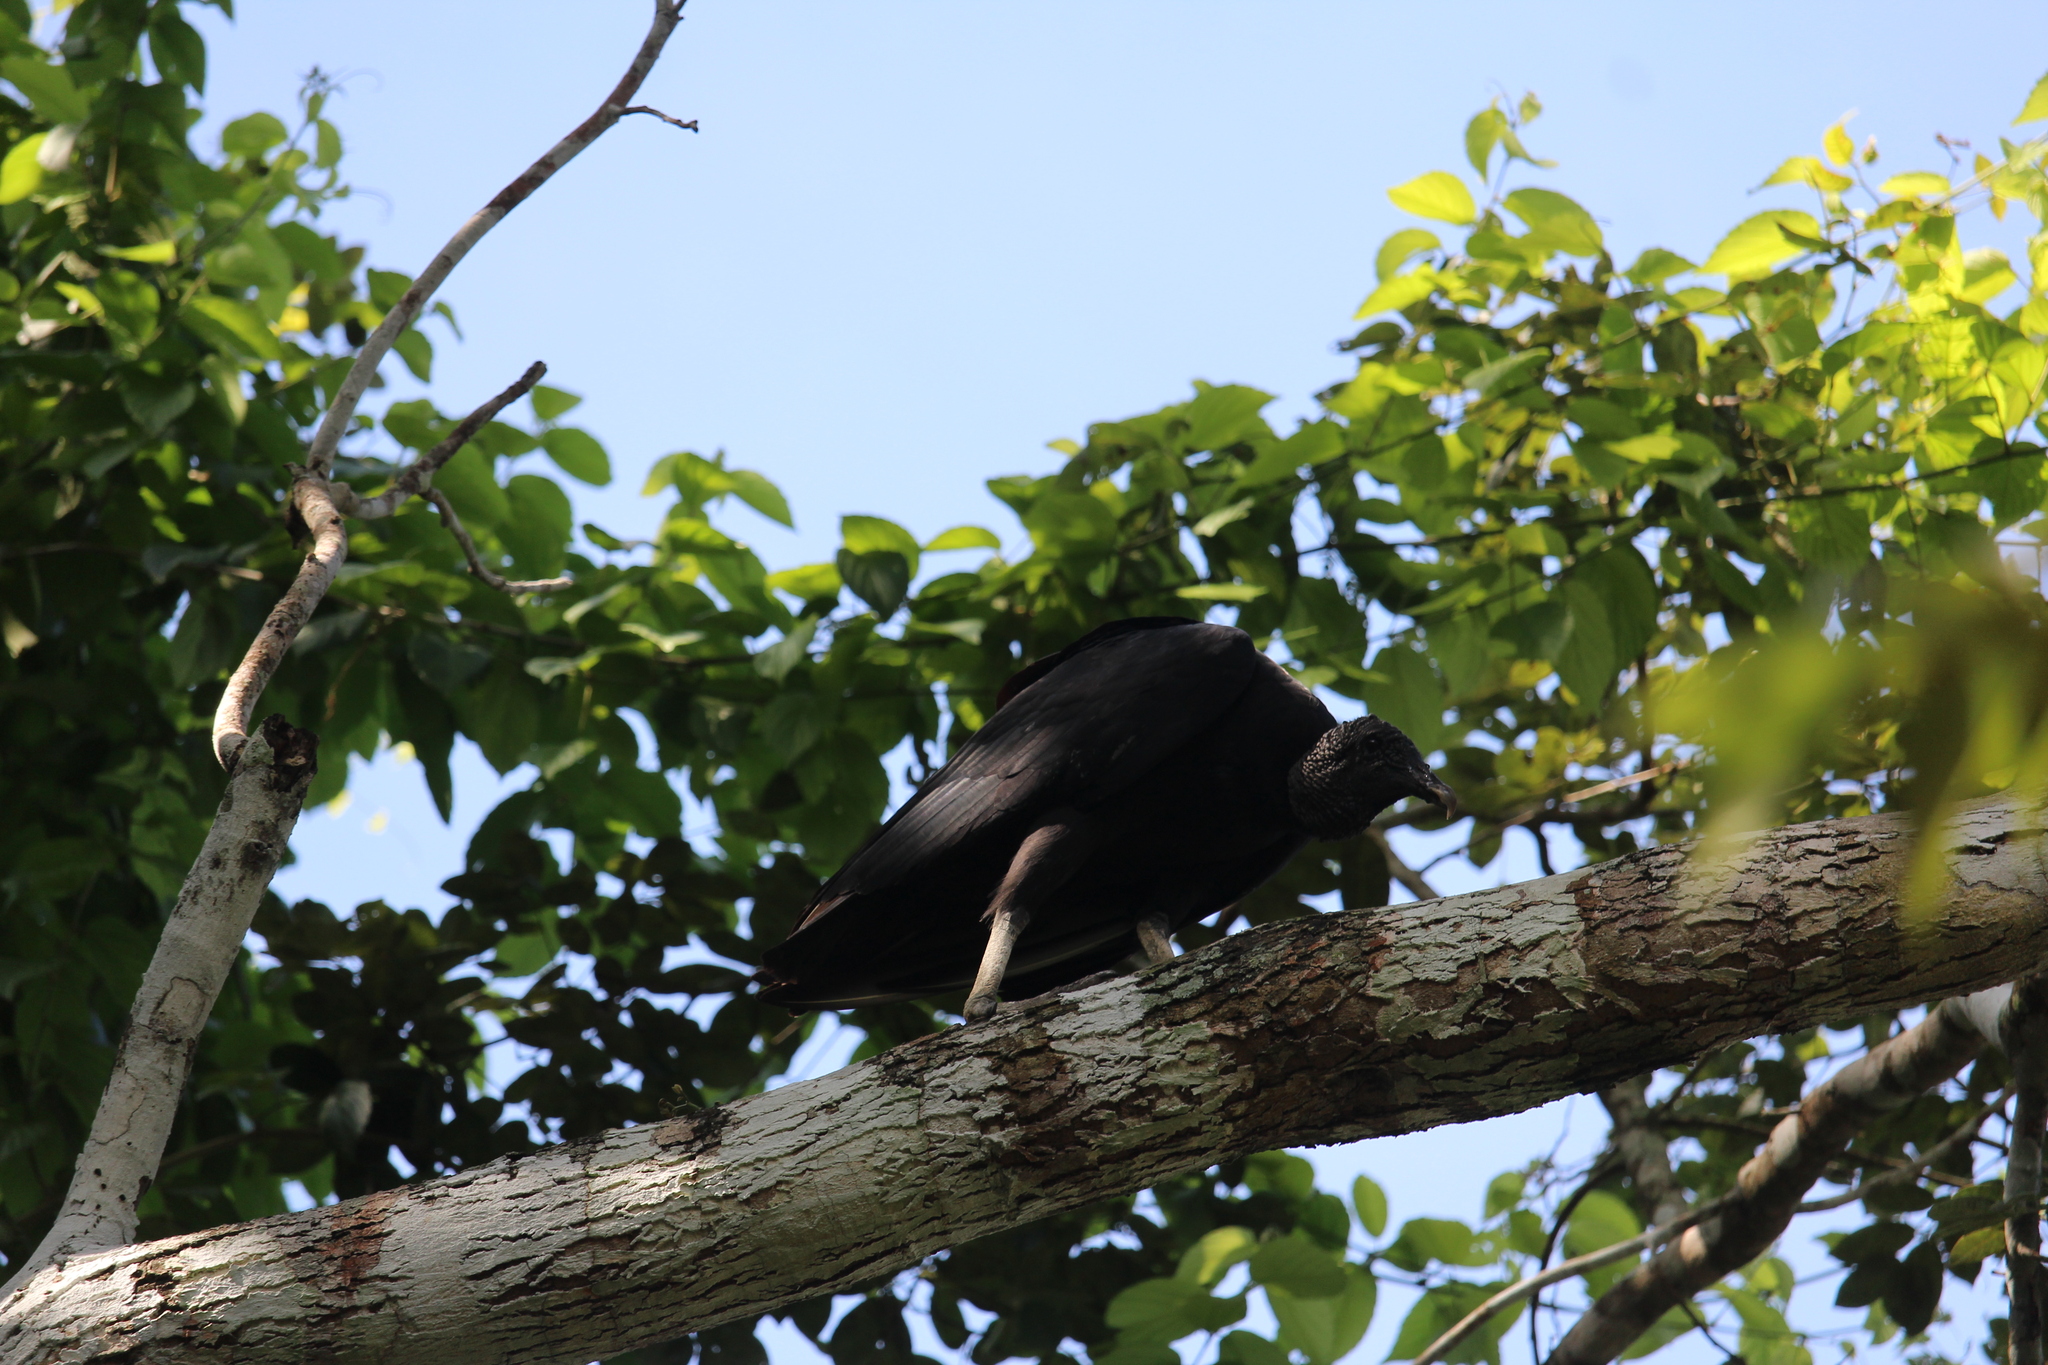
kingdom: Animalia
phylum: Chordata
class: Aves
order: Accipitriformes
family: Cathartidae
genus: Coragyps
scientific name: Coragyps atratus
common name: Black vulture
